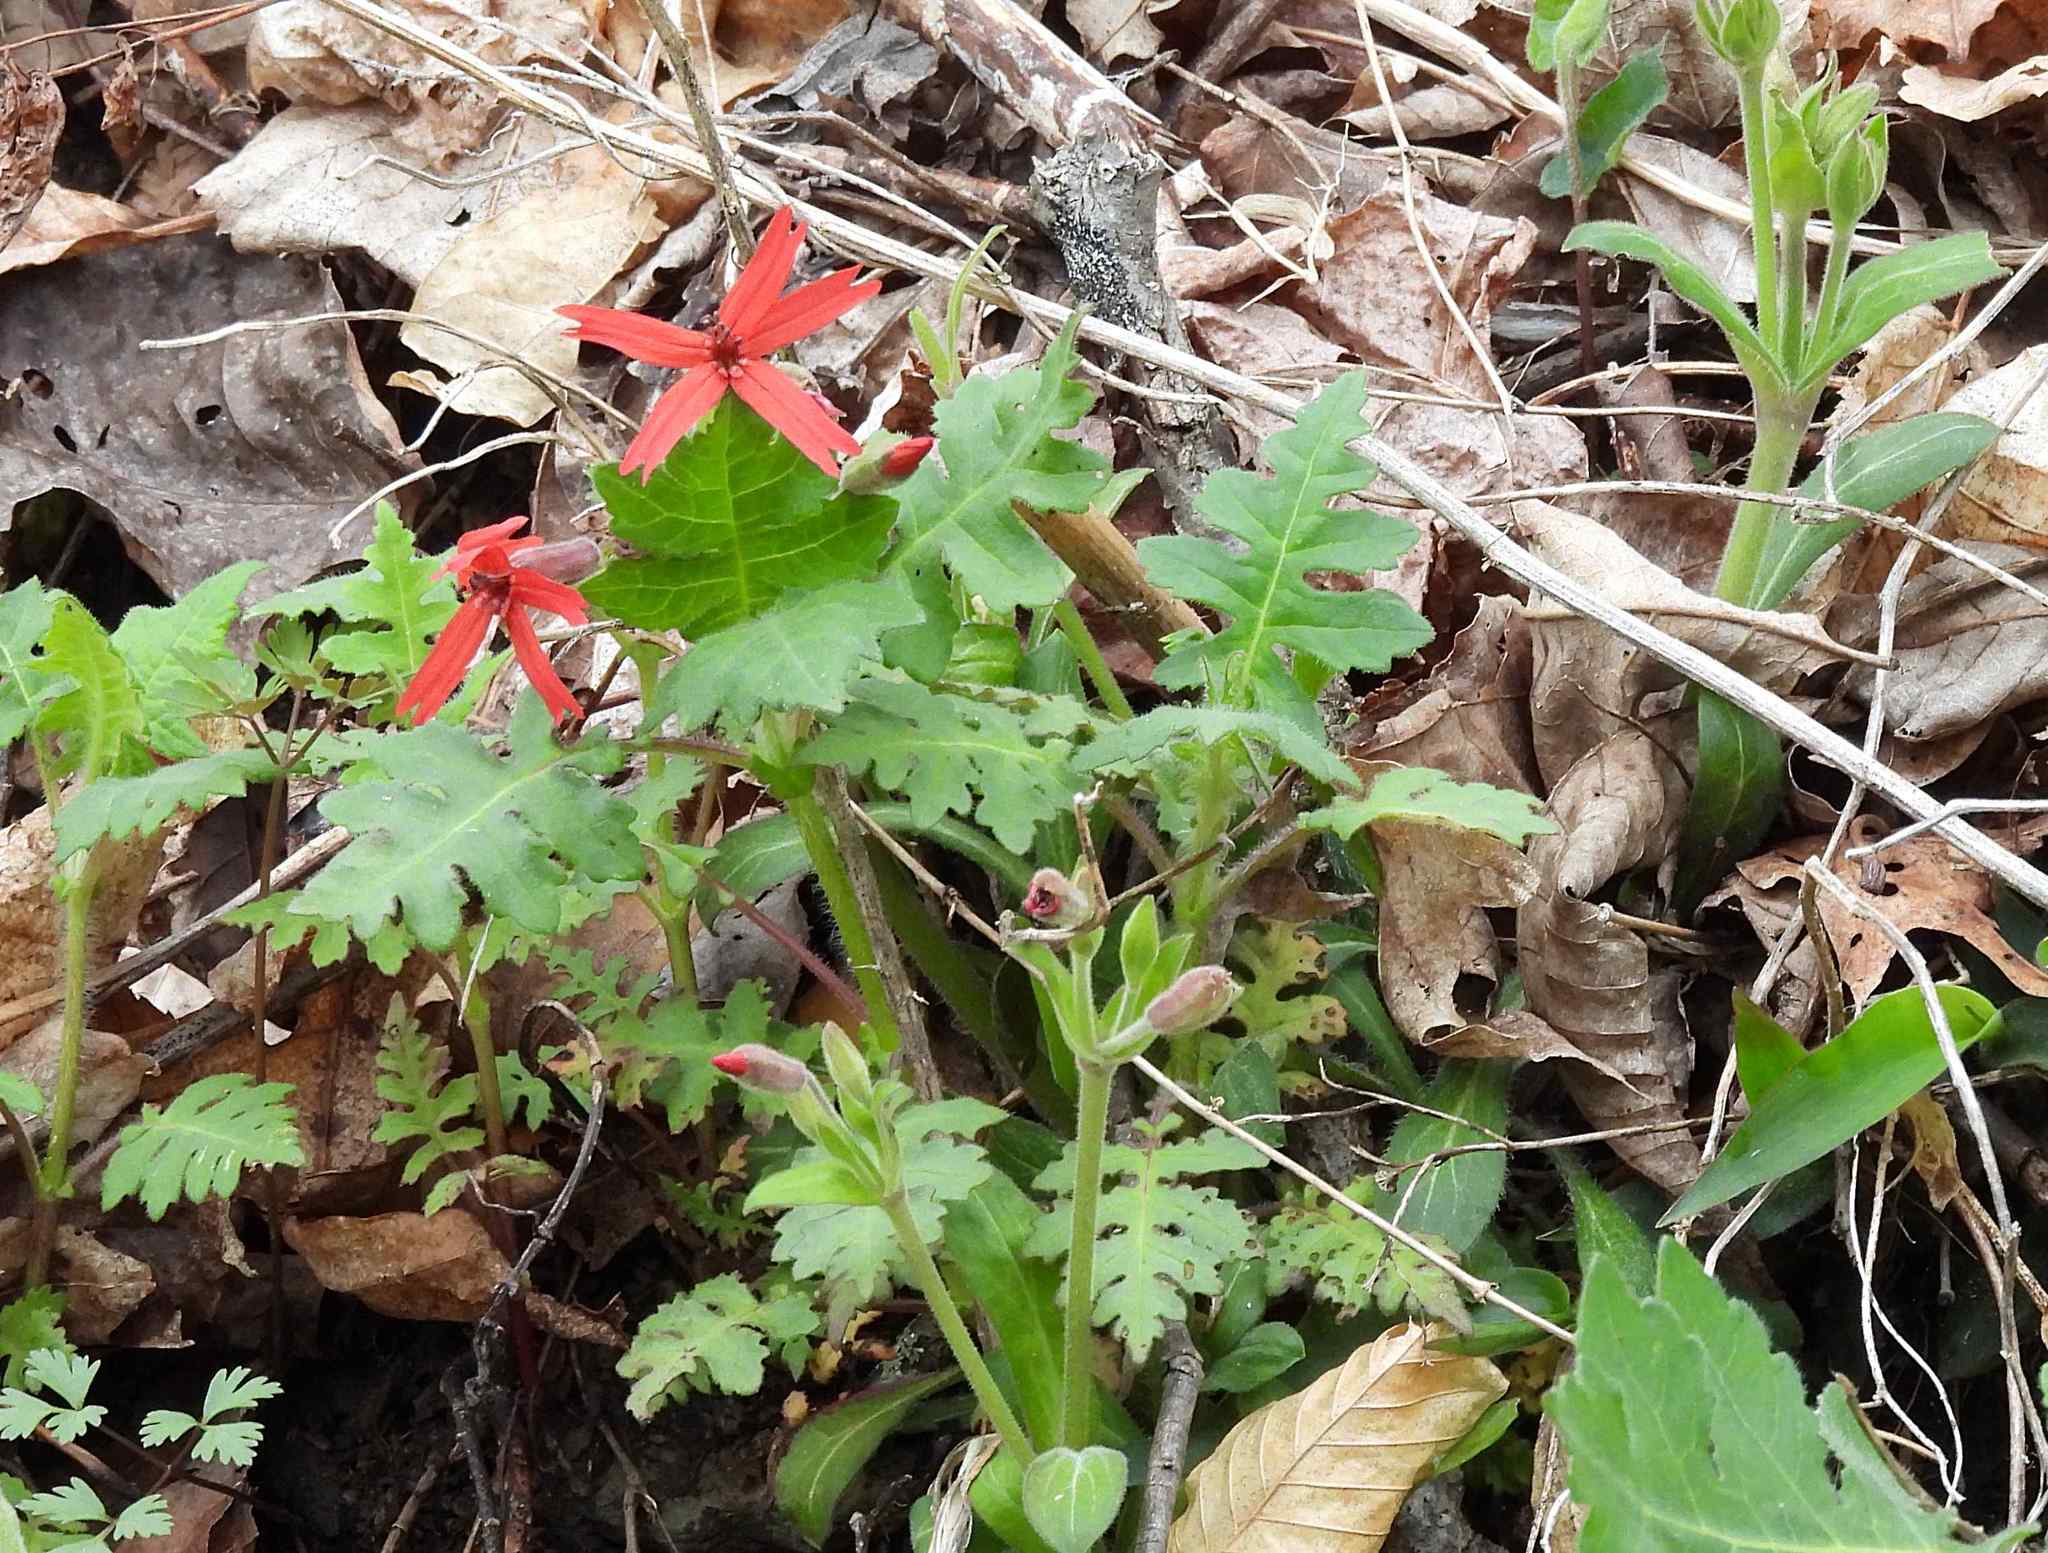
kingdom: Plantae
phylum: Tracheophyta
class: Magnoliopsida
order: Caryophyllales
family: Caryophyllaceae
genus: Silene
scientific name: Silene virginica
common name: Fire-pink
